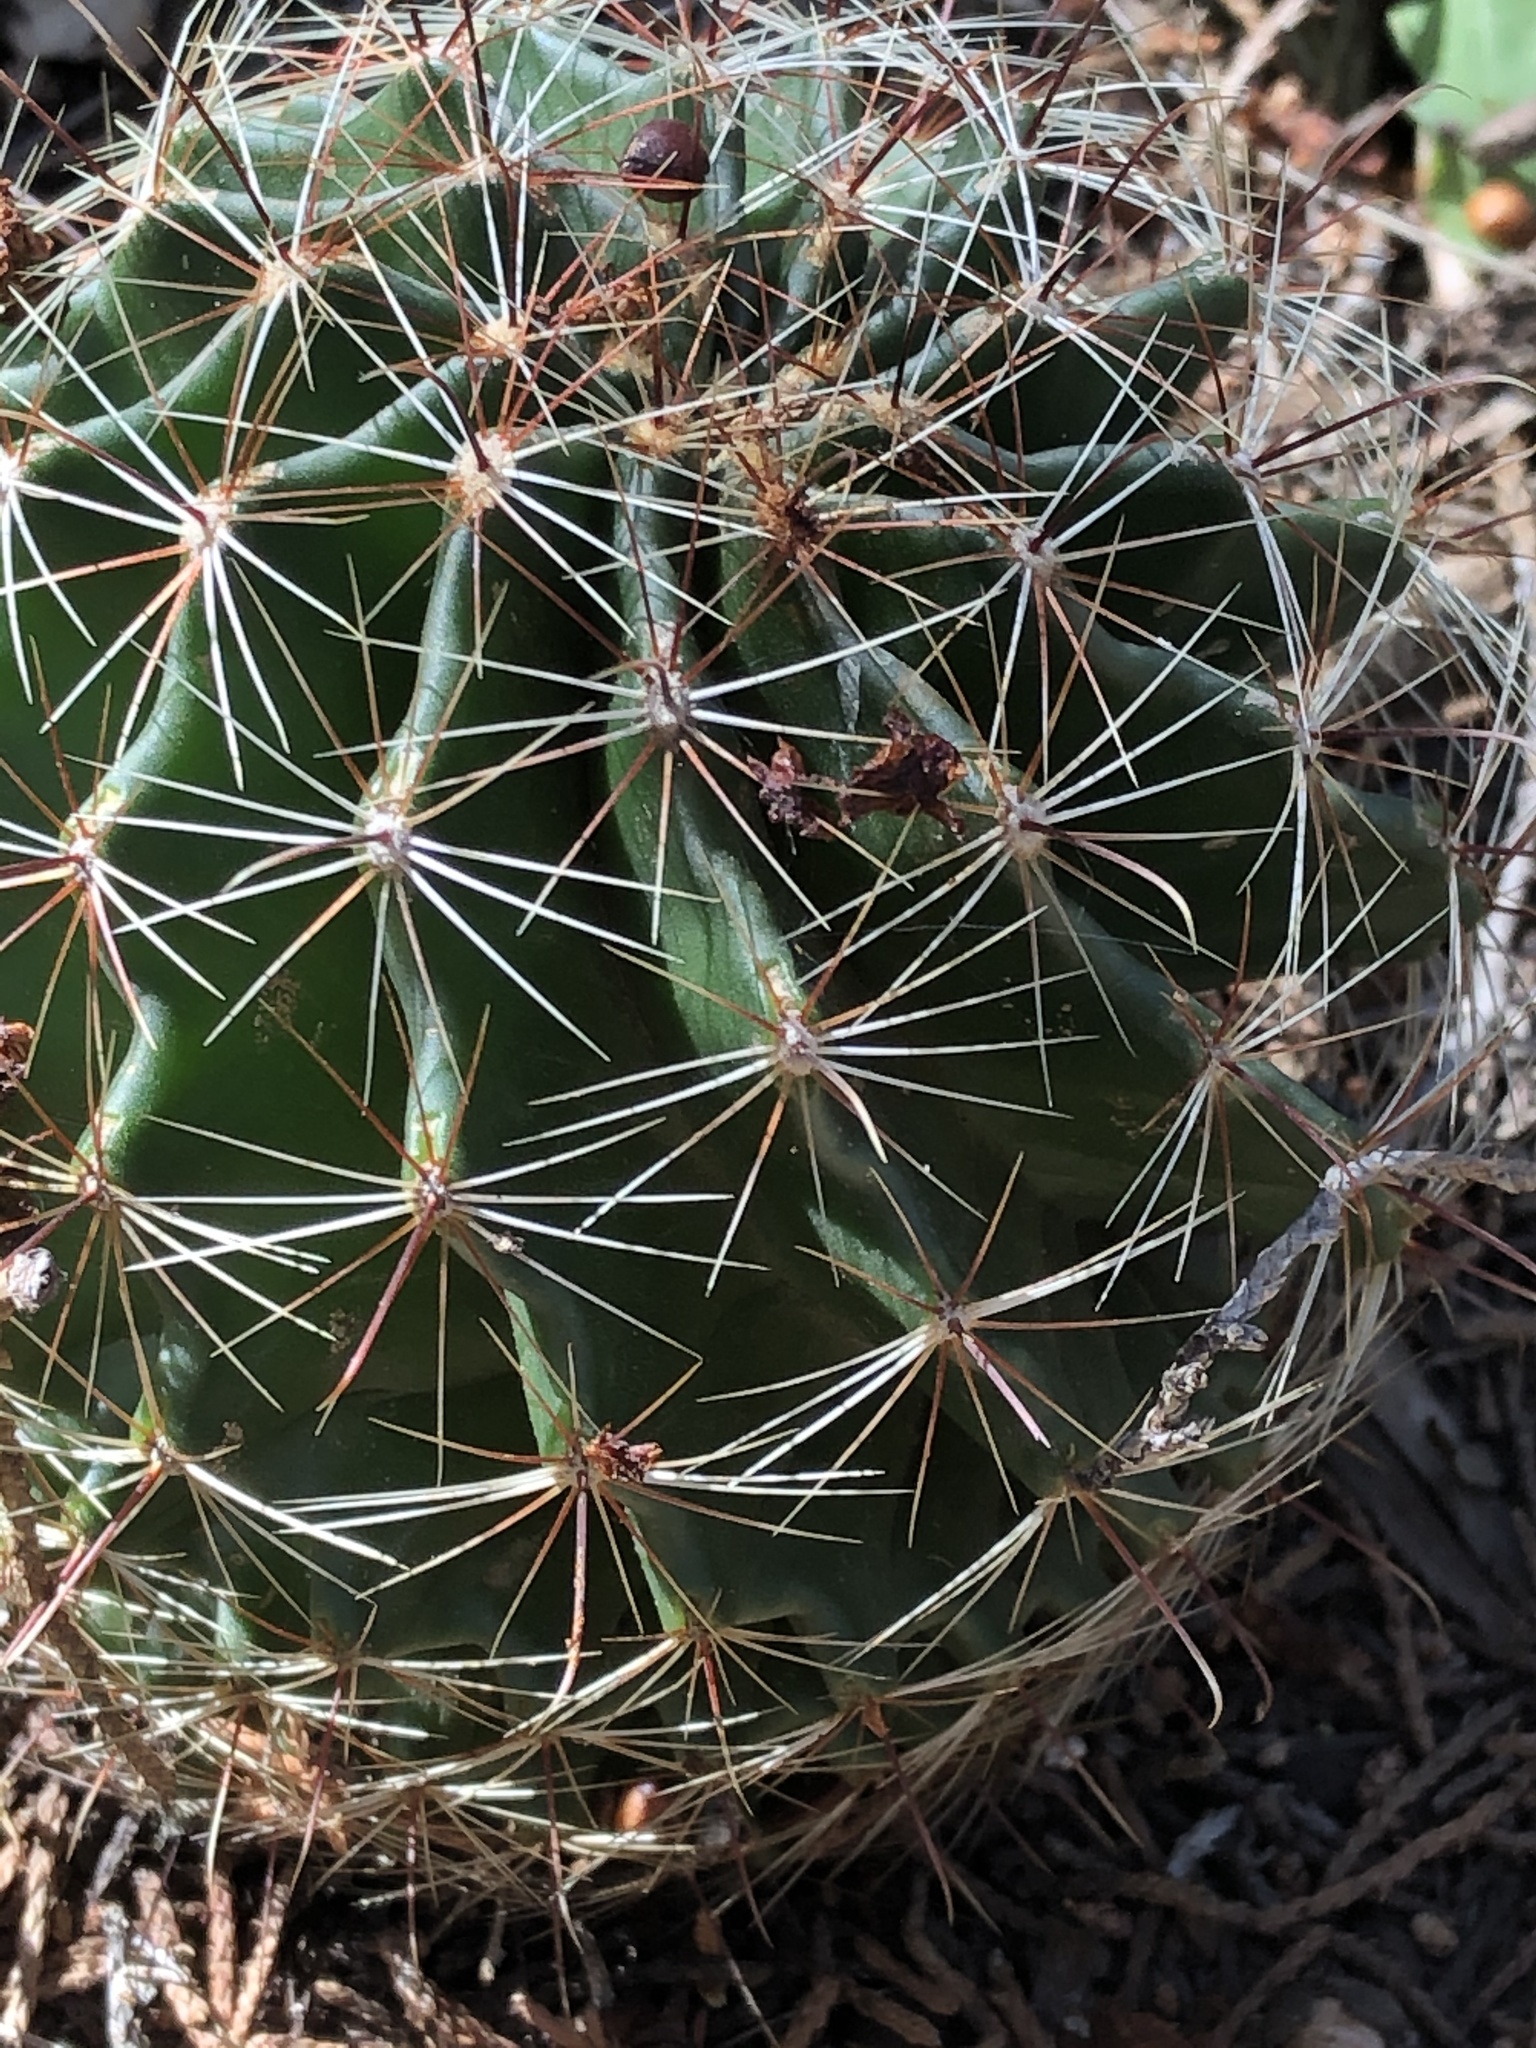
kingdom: Plantae
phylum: Tracheophyta
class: Magnoliopsida
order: Caryophyllales
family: Cactaceae
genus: Thelocactus
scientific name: Thelocactus setispinus
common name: Miniature barrel cactus
